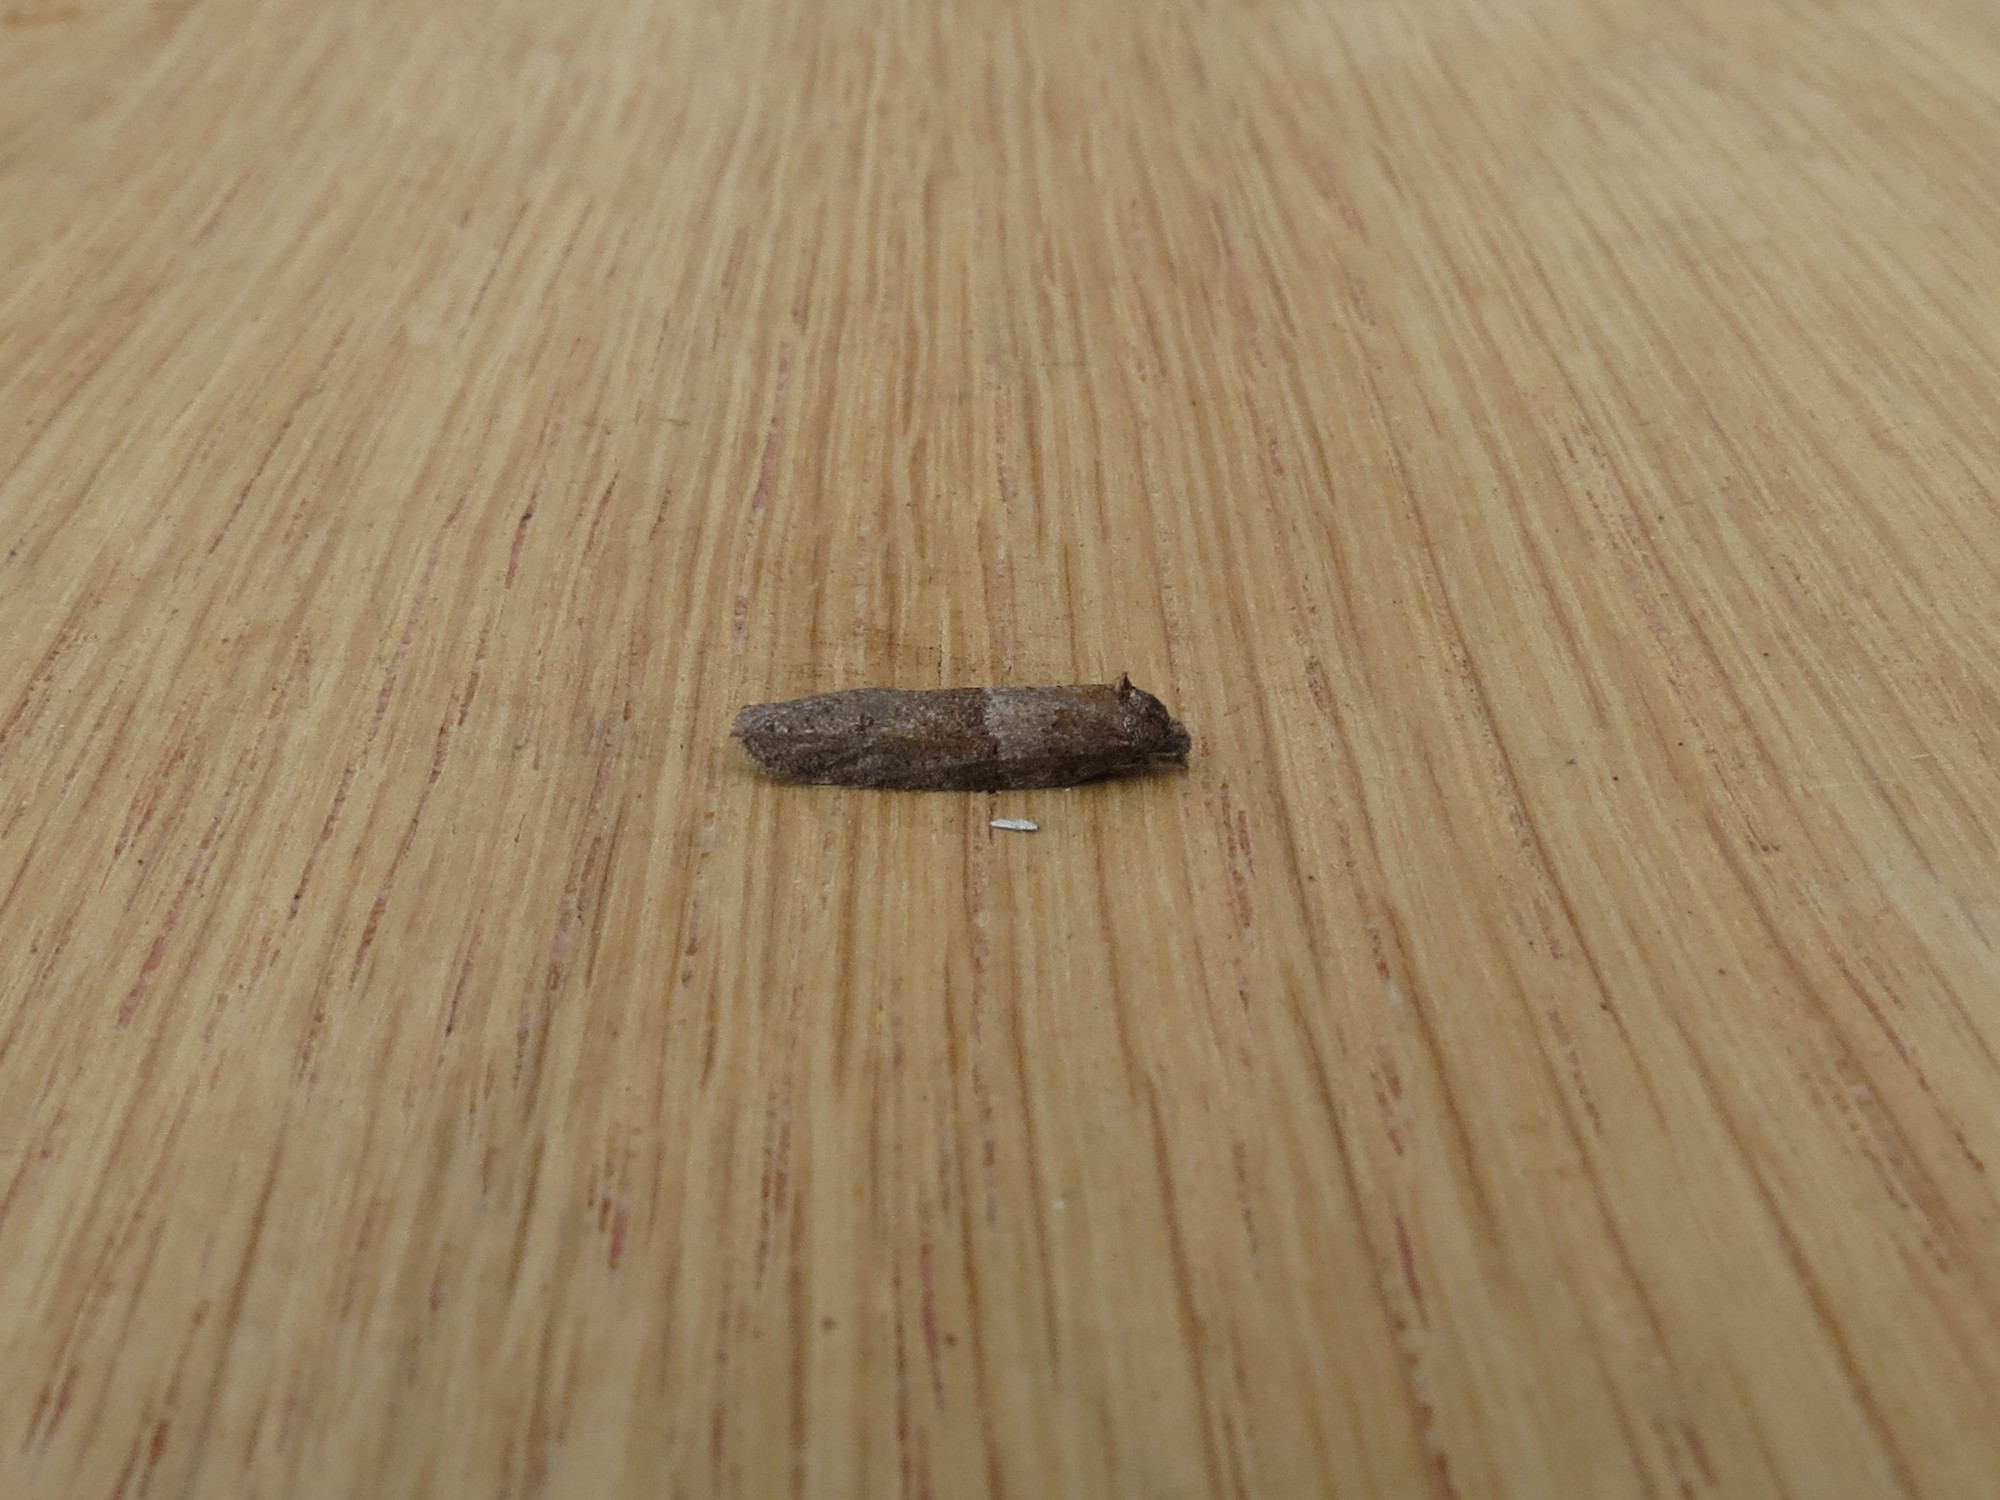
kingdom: Animalia
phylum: Arthropoda
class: Insecta
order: Lepidoptera
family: Tortricidae
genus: Tortricodes
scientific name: Tortricodes alternella
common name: Winter shade
